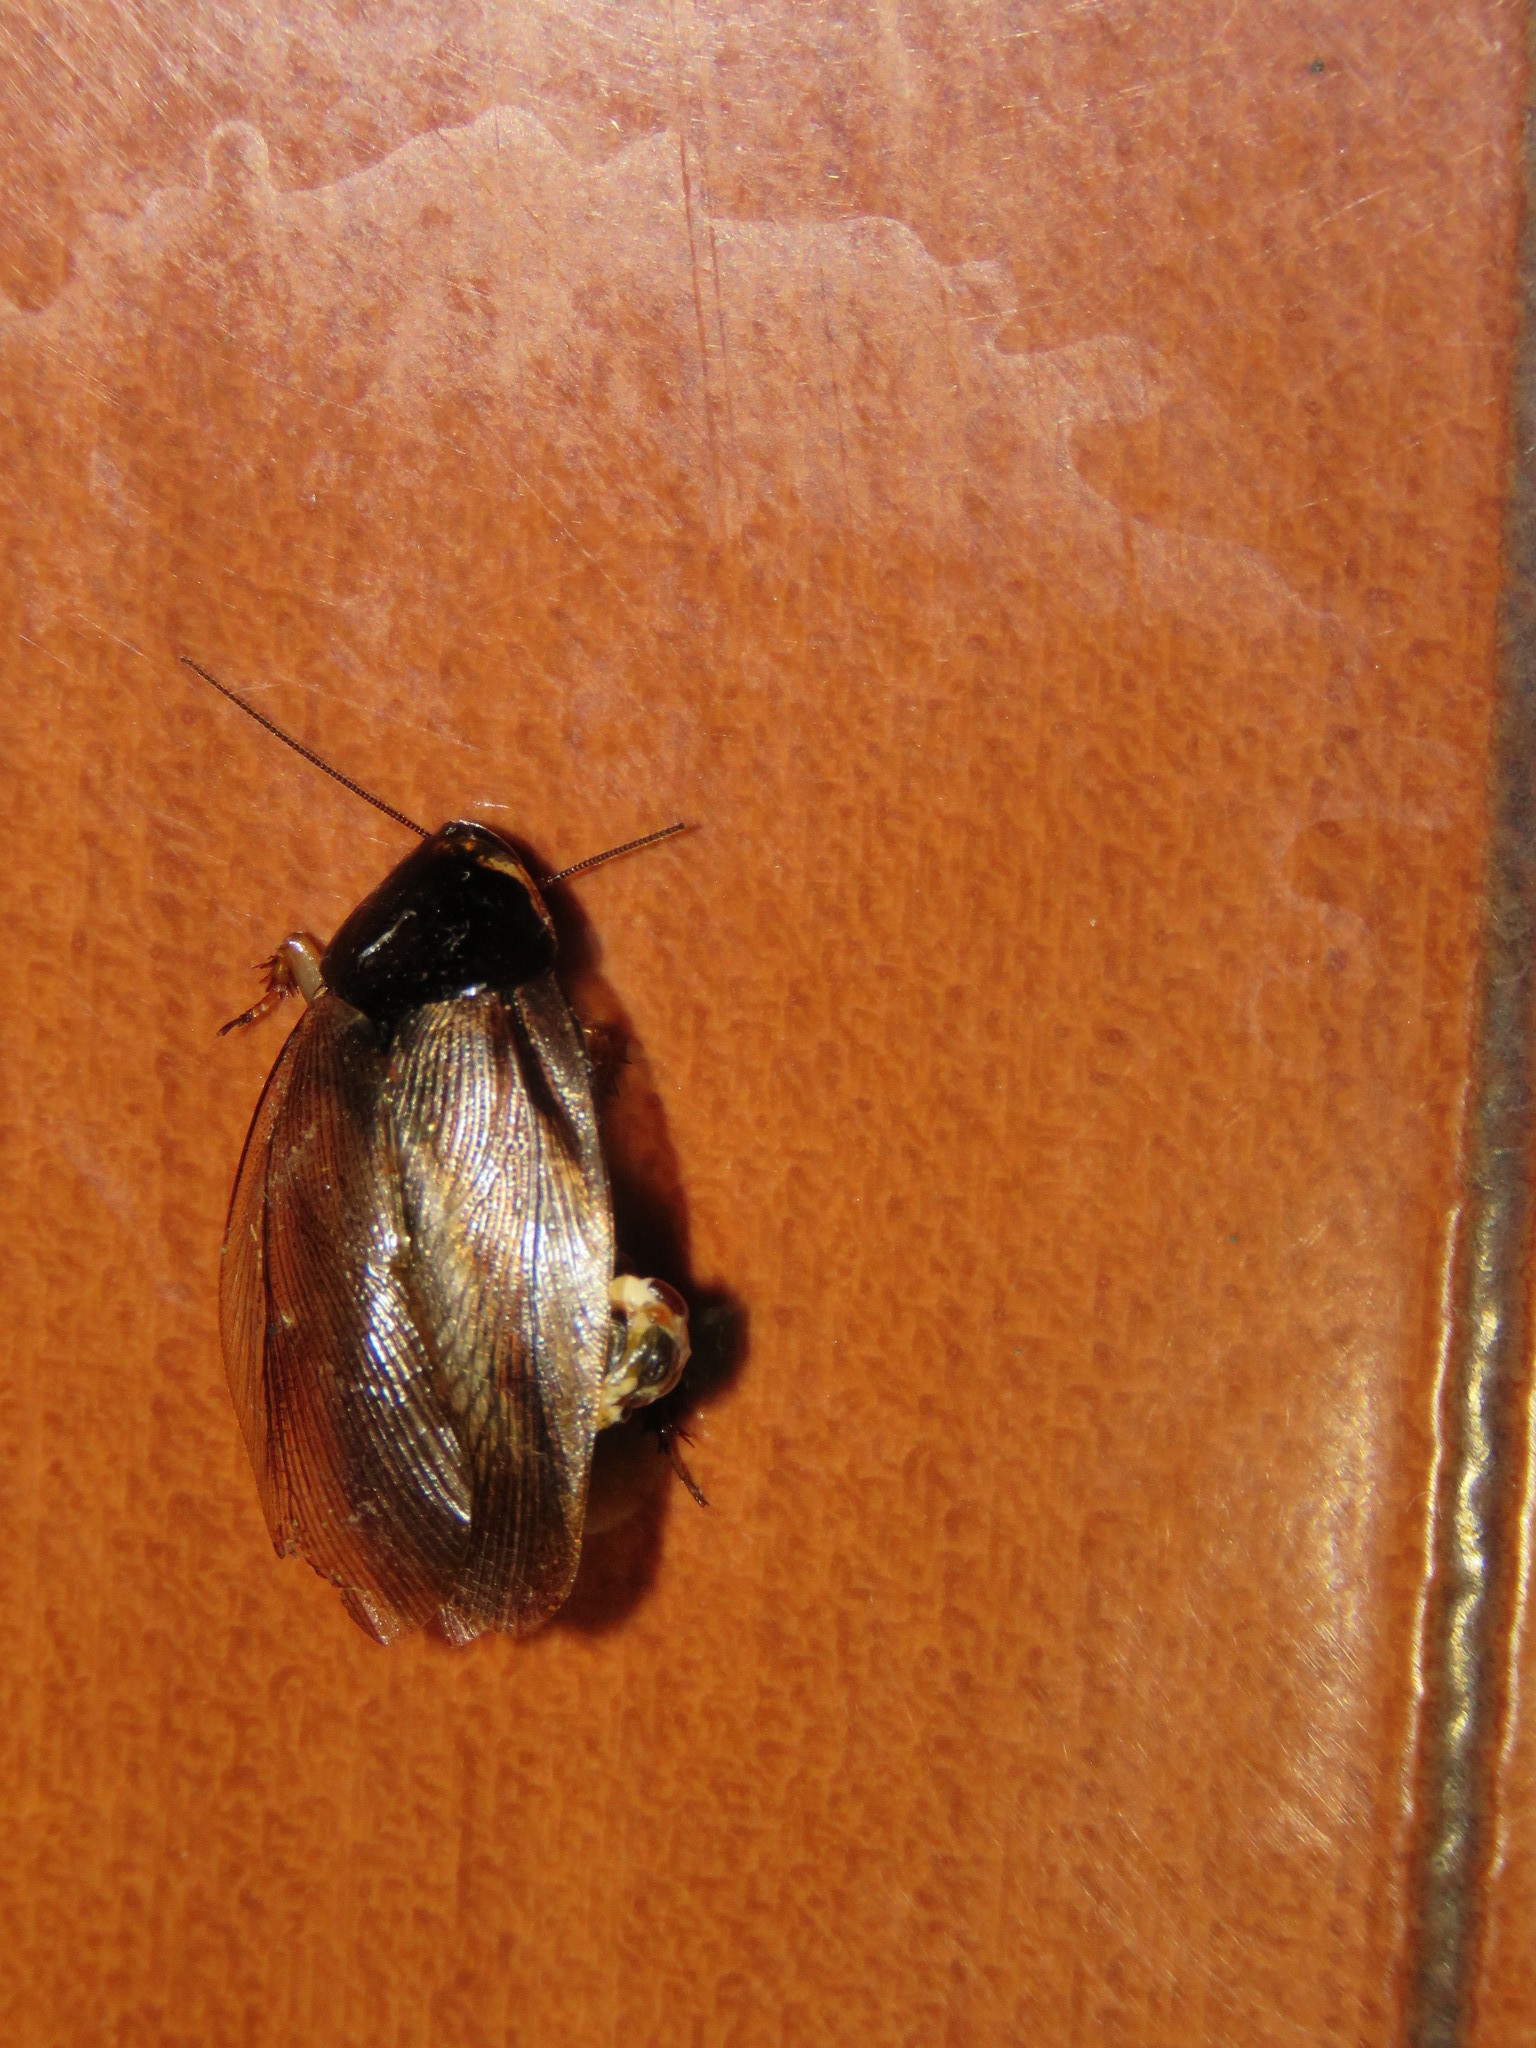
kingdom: Animalia
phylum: Arthropoda
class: Insecta
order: Blattodea
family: Blaberidae
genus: Pycnoscelus
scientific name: Pycnoscelus surinamensis
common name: Surinam cockroach
